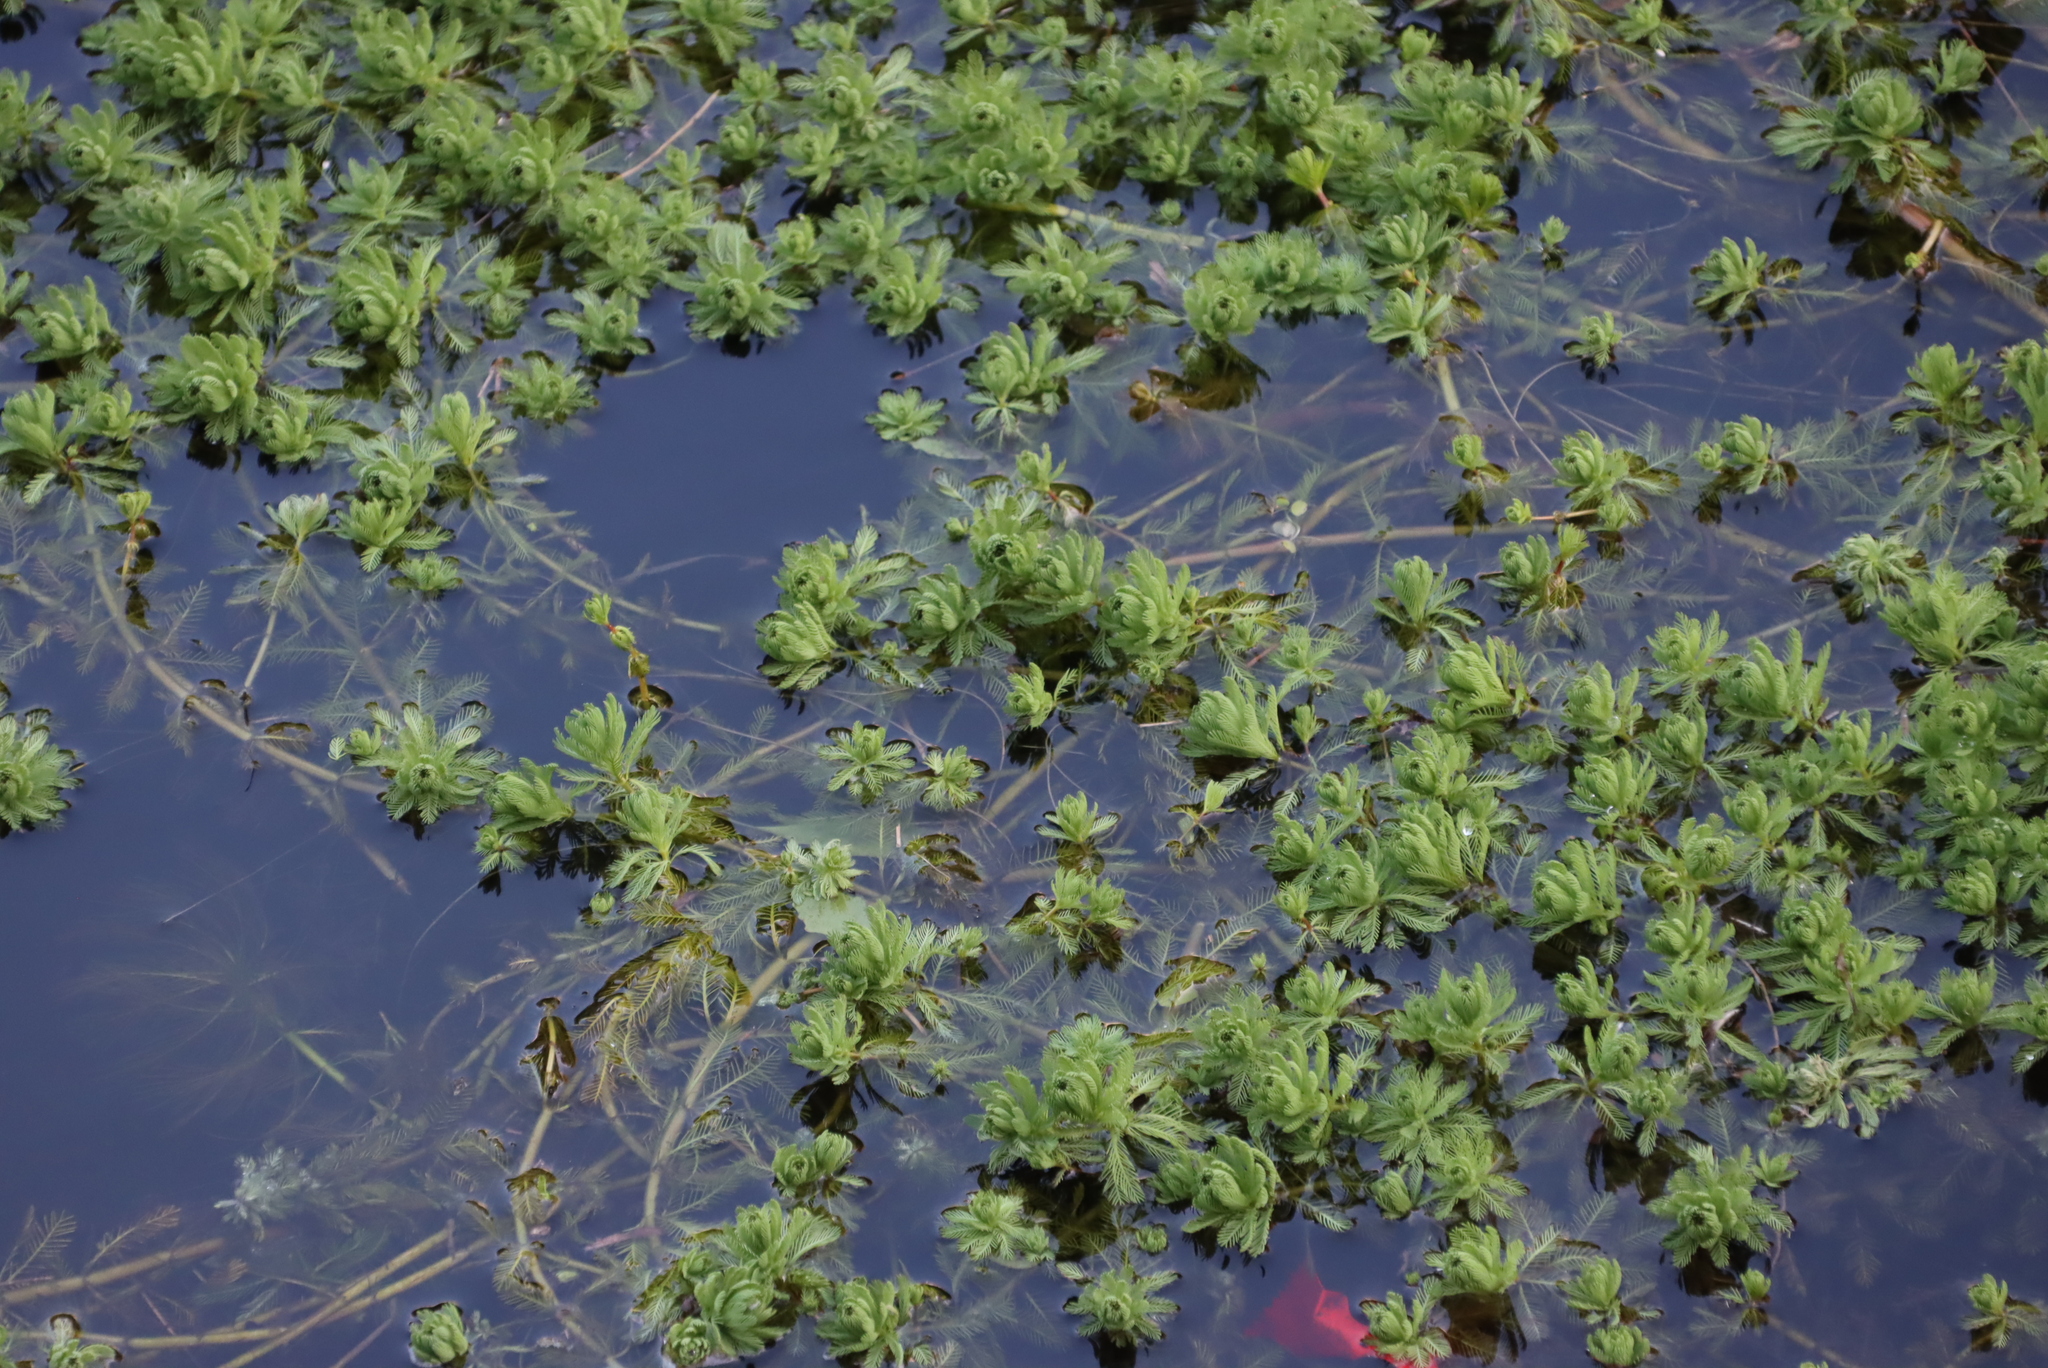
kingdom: Plantae
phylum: Tracheophyta
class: Magnoliopsida
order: Saxifragales
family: Haloragaceae
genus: Myriophyllum
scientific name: Myriophyllum aquaticum
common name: Parrot's feather
